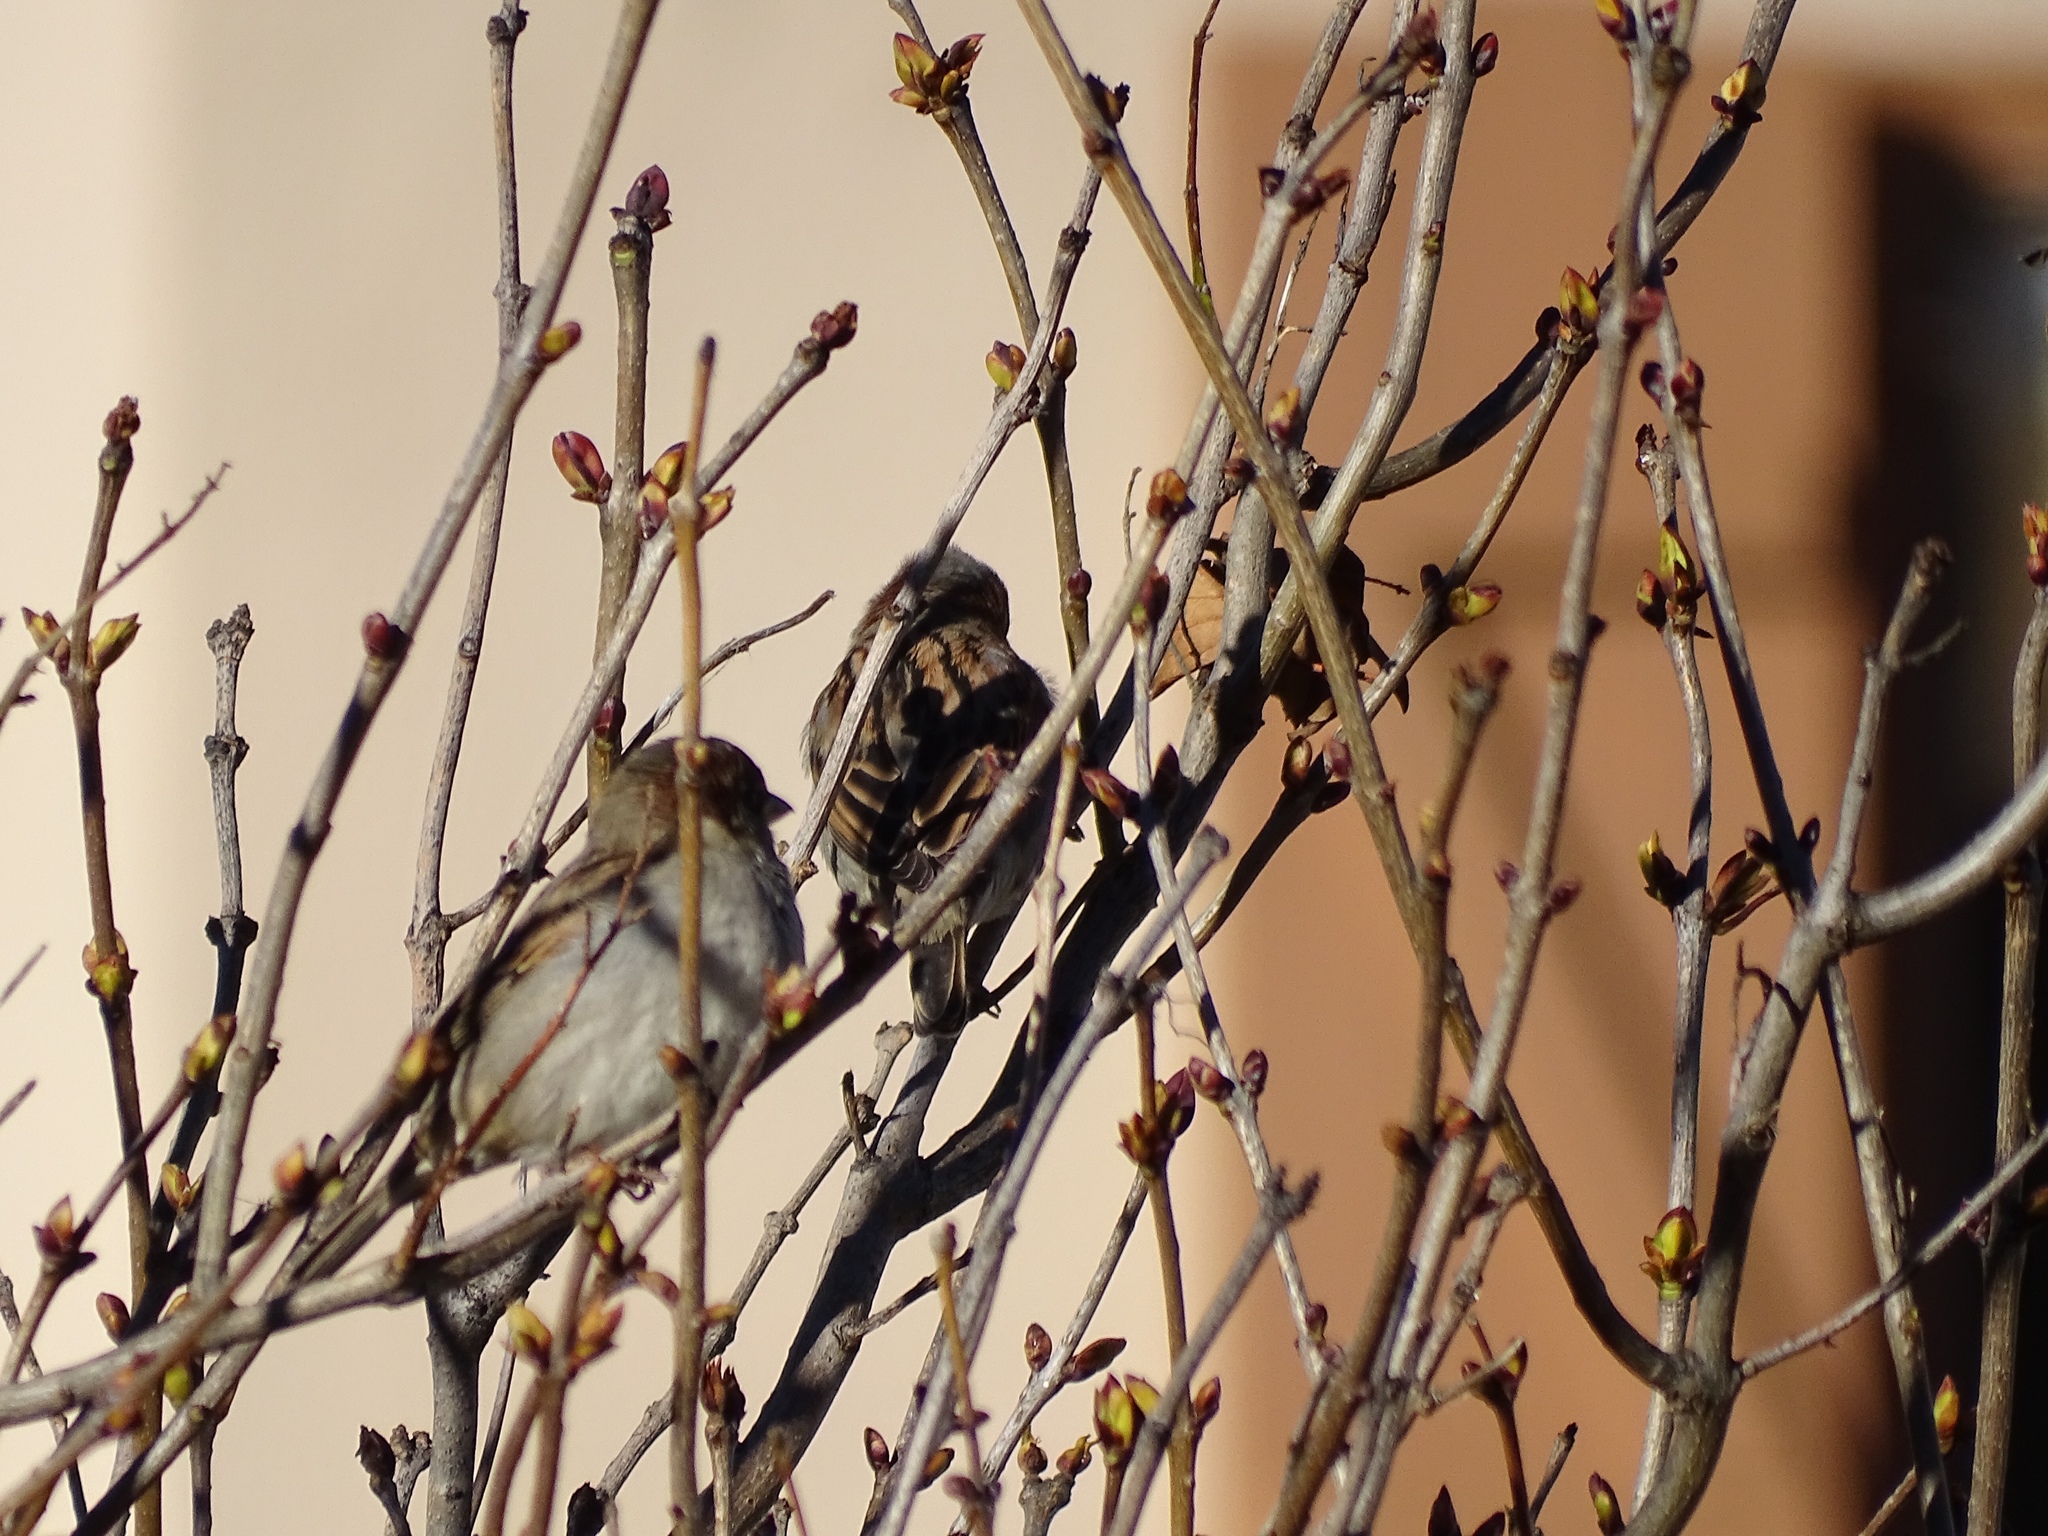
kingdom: Animalia
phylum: Chordata
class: Aves
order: Passeriformes
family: Passeridae
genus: Passer
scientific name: Passer domesticus
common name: House sparrow
